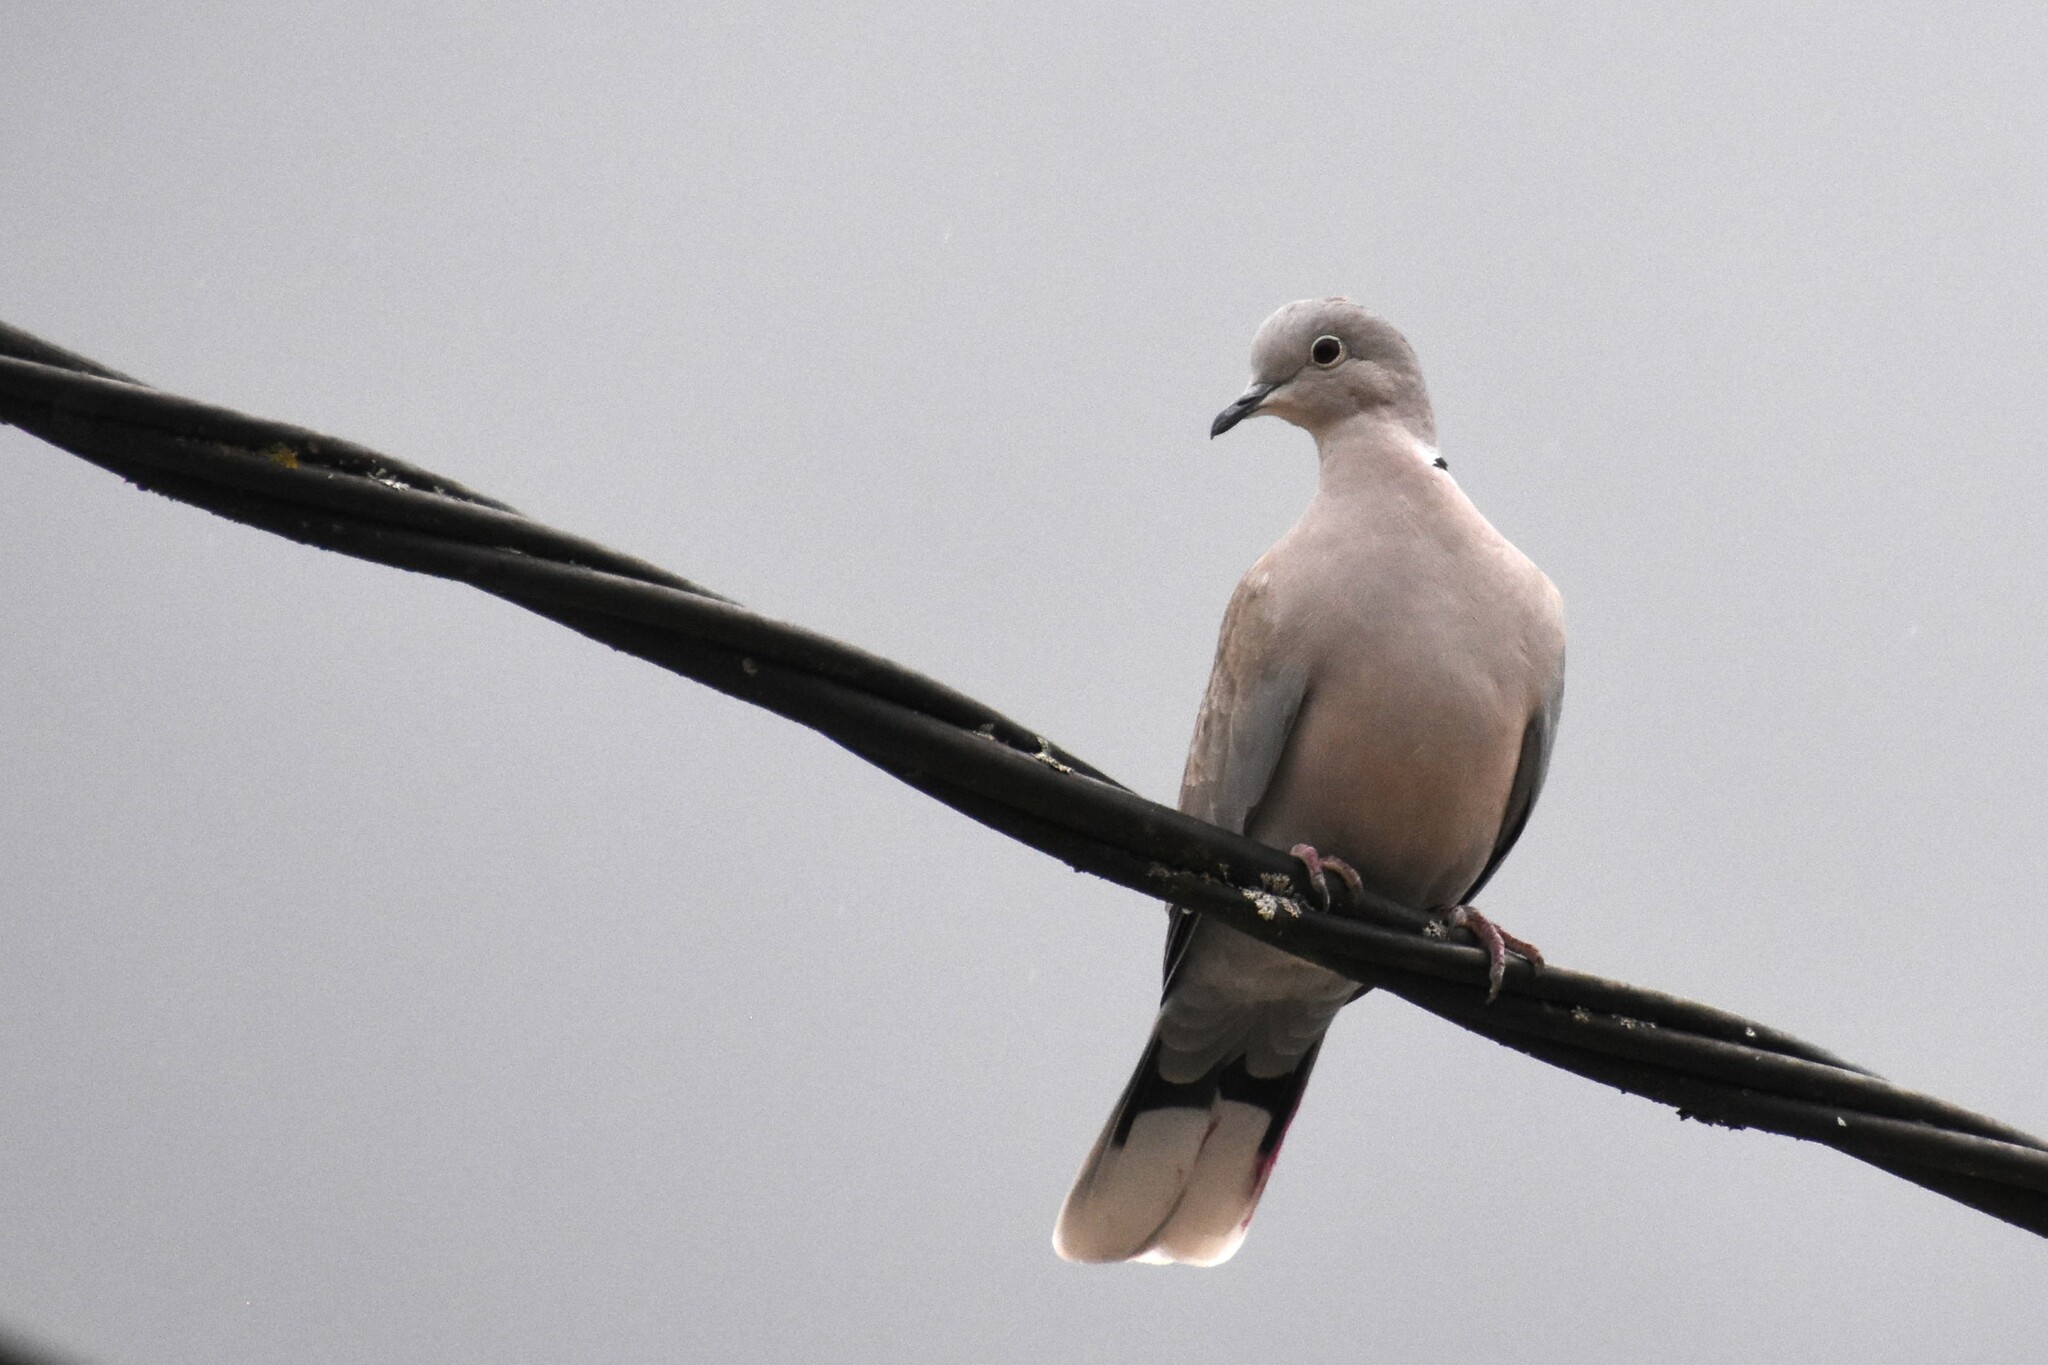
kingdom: Animalia
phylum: Chordata
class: Aves
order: Columbiformes
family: Columbidae
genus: Streptopelia
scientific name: Streptopelia decaocto
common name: Eurasian collared dove
